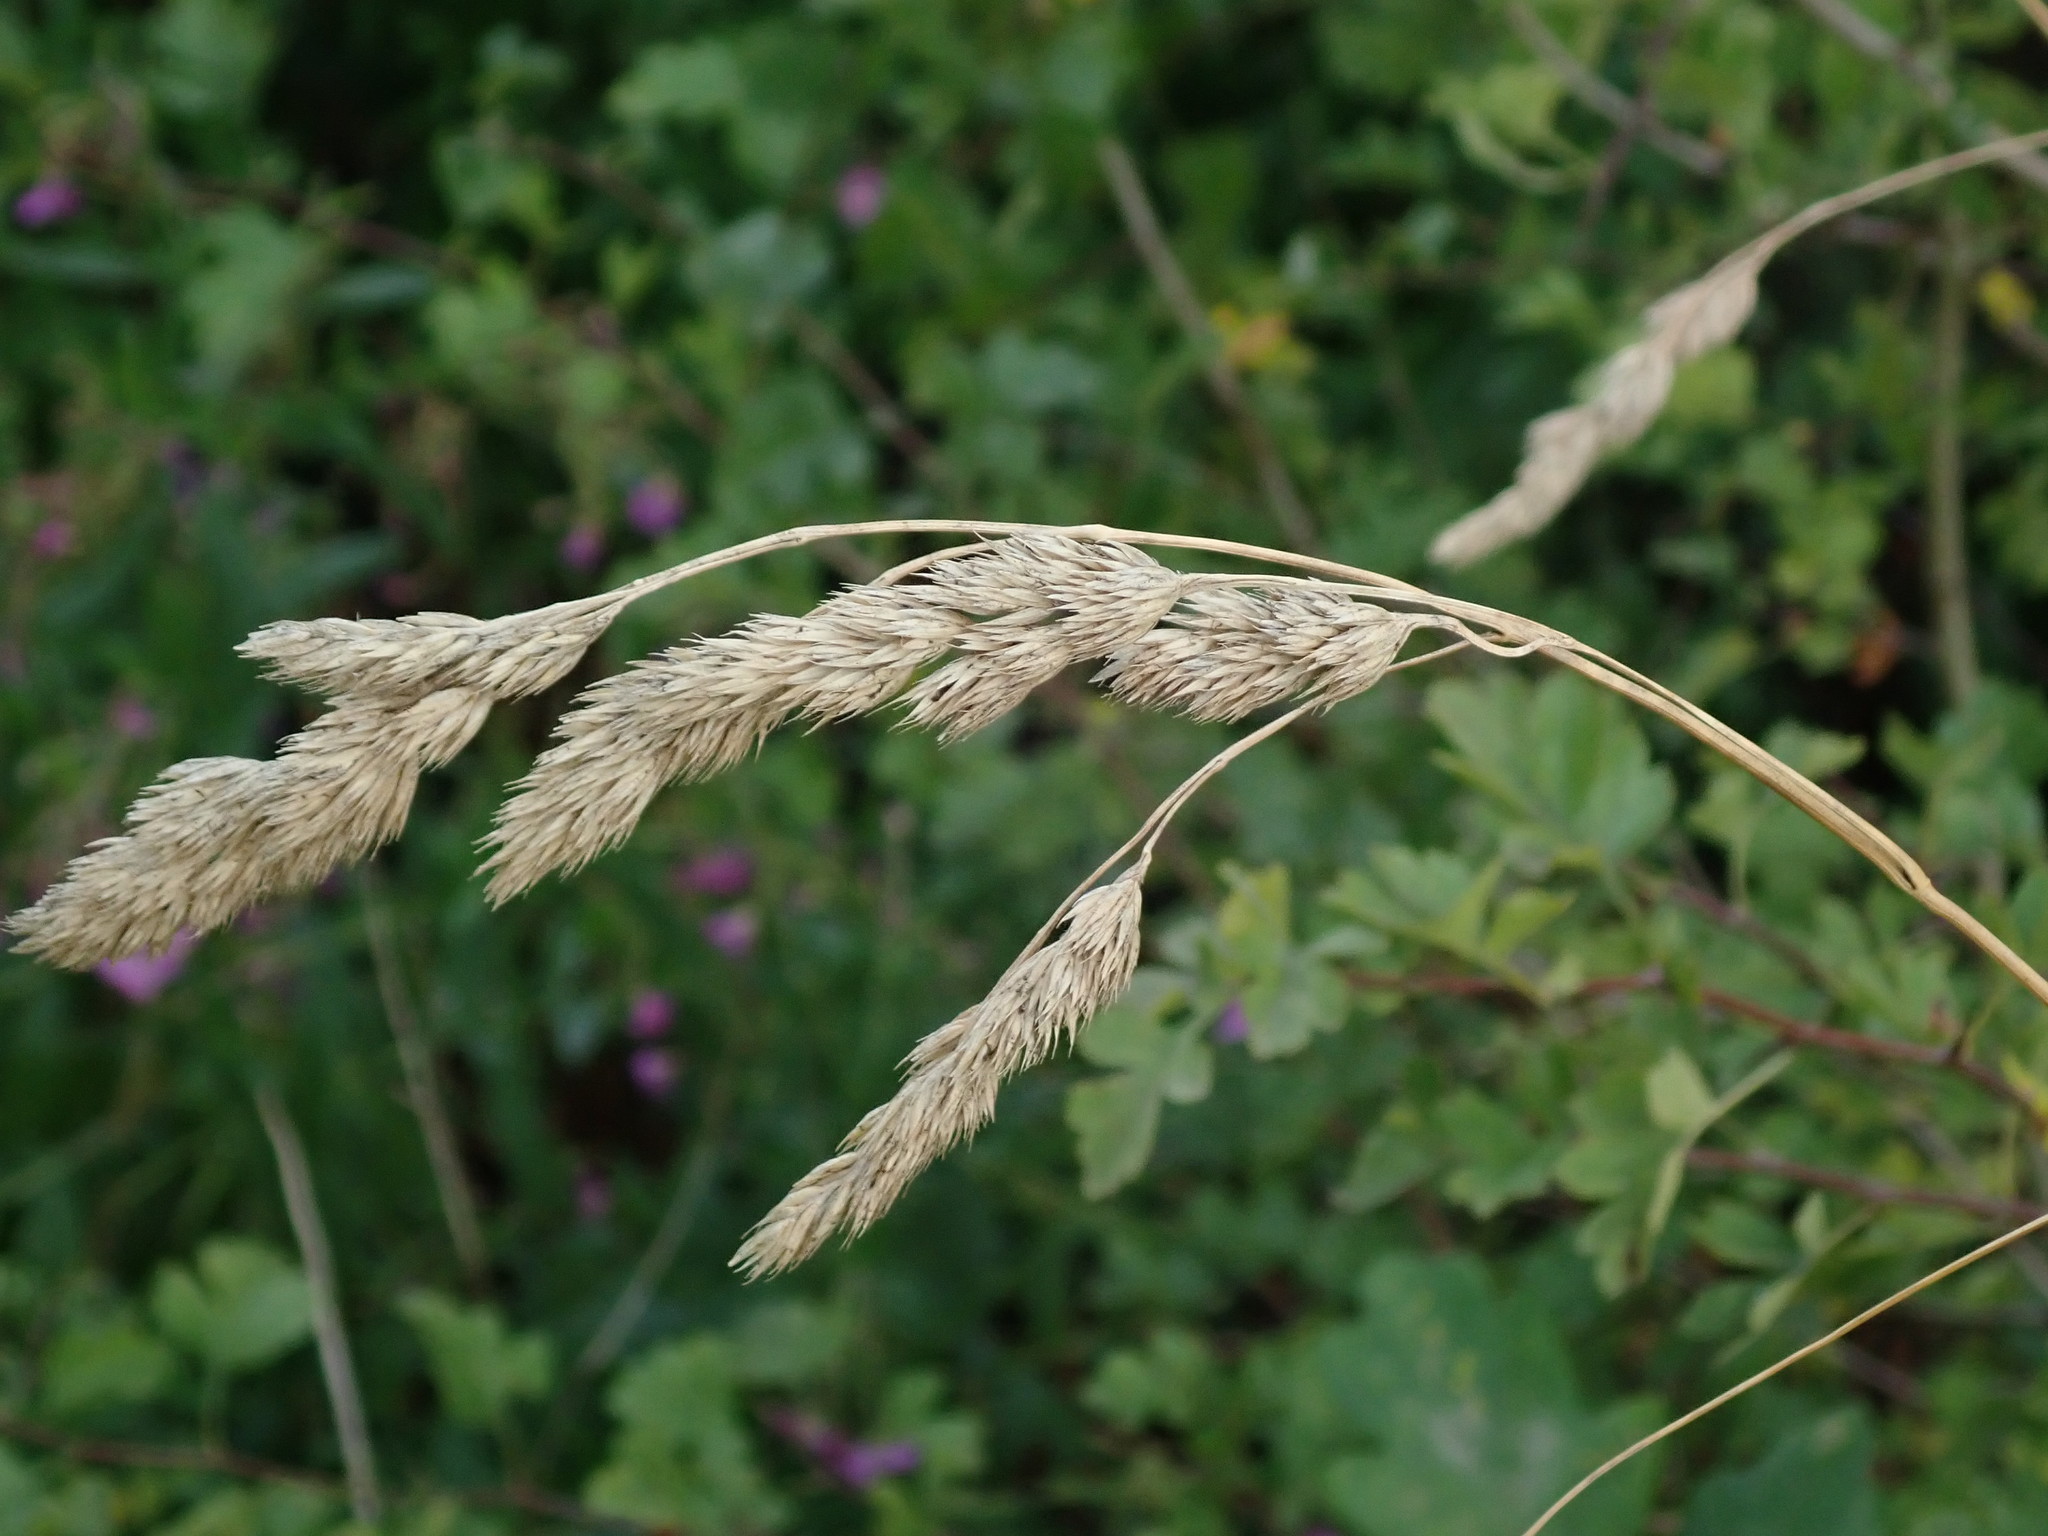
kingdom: Plantae
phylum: Tracheophyta
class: Liliopsida
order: Poales
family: Poaceae
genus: Dactylis
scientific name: Dactylis glomerata
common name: Orchardgrass
